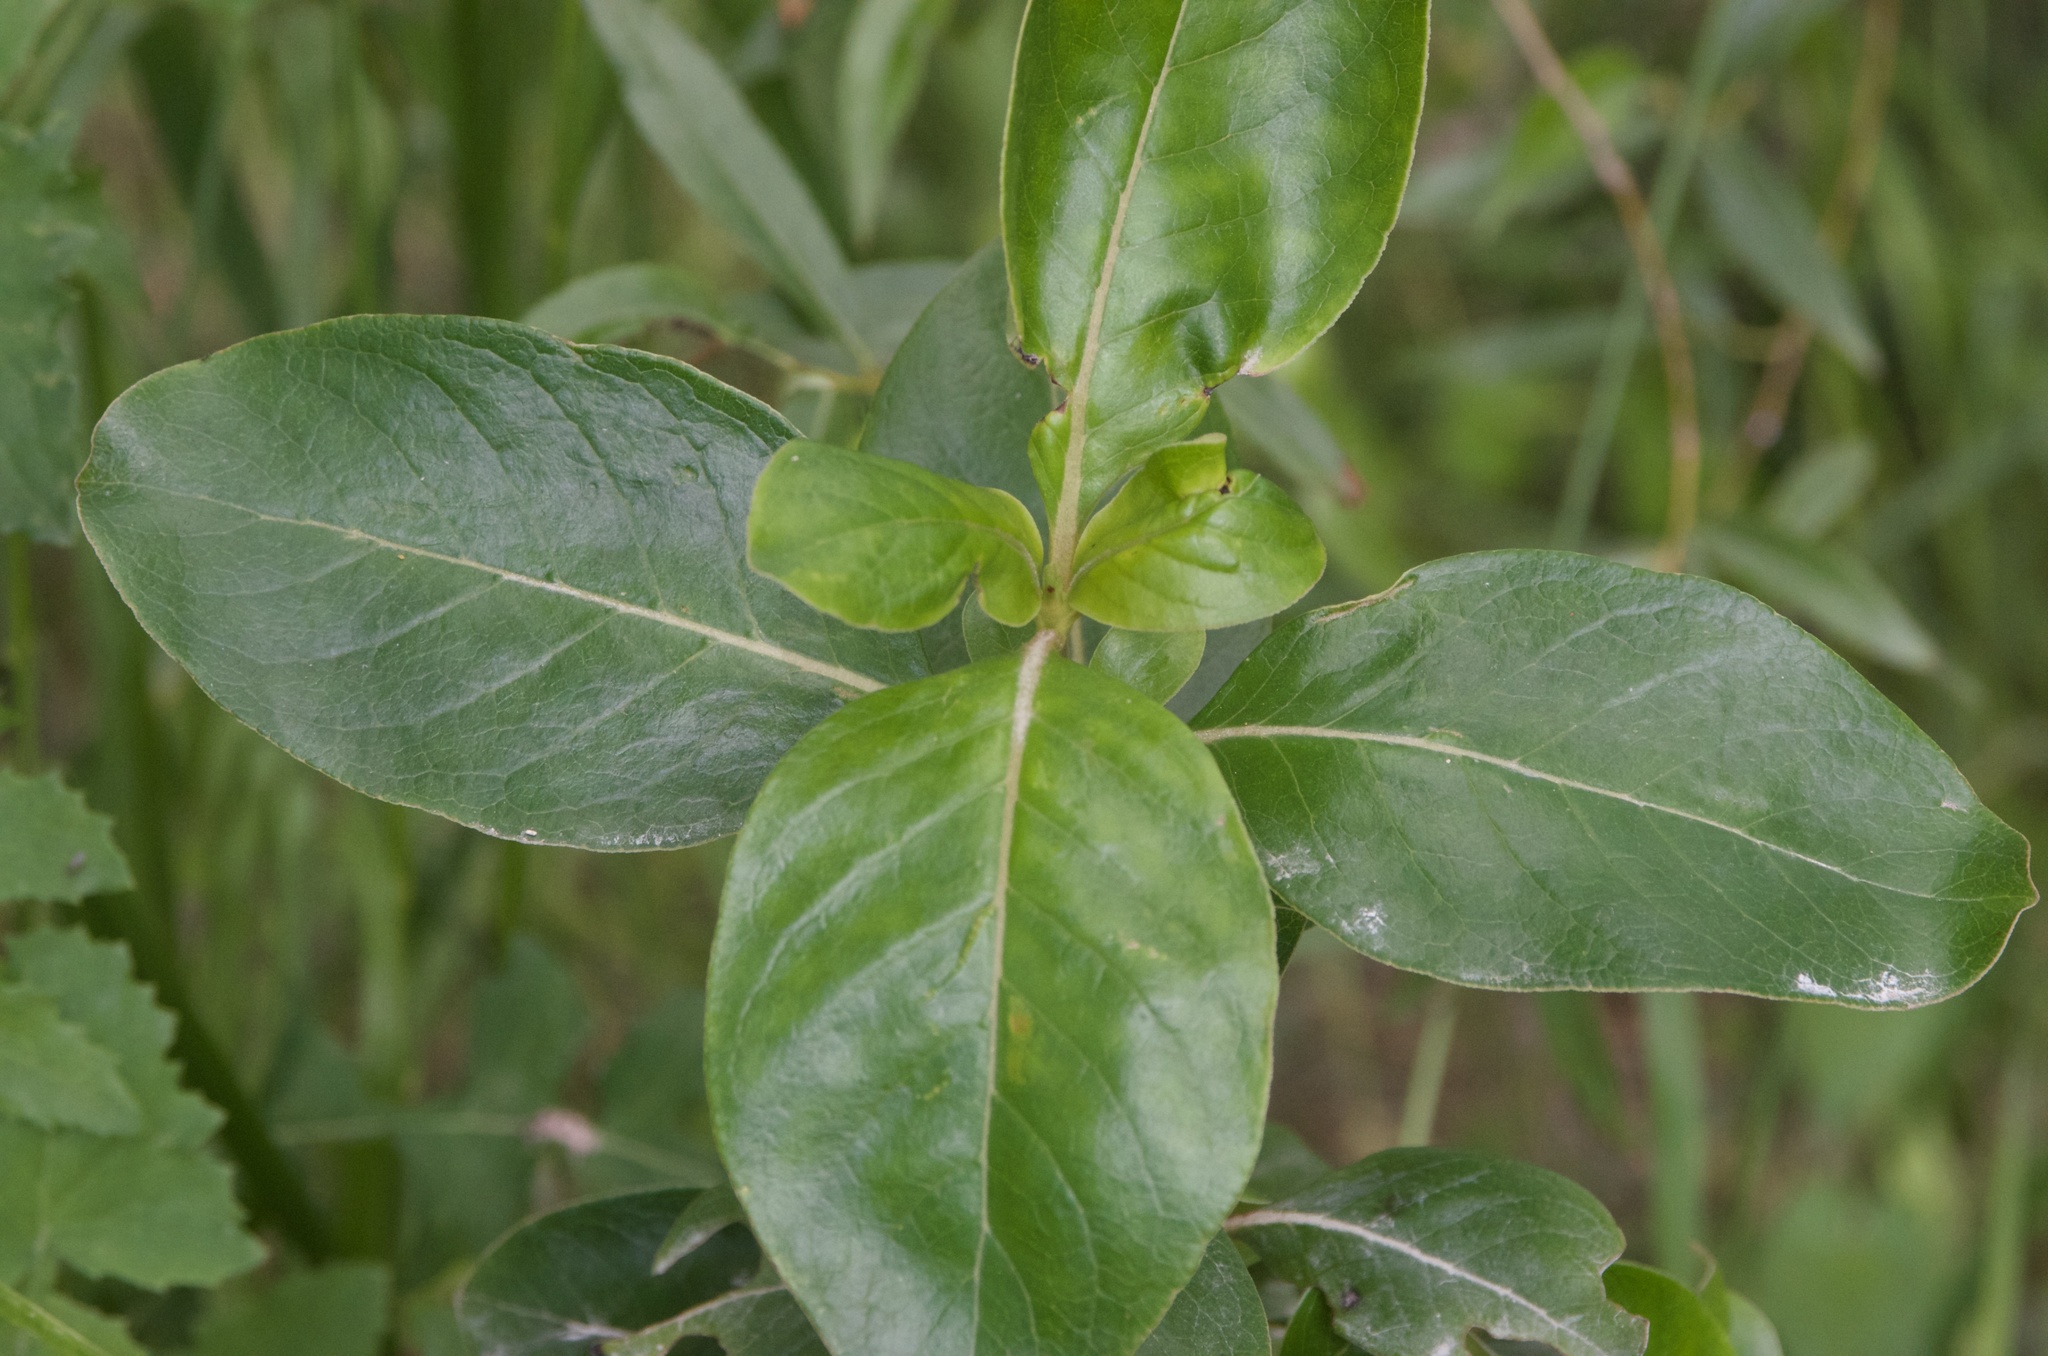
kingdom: Plantae
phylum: Tracheophyta
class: Magnoliopsida
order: Gentianales
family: Rubiaceae
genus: Coprosma
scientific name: Coprosma robusta
